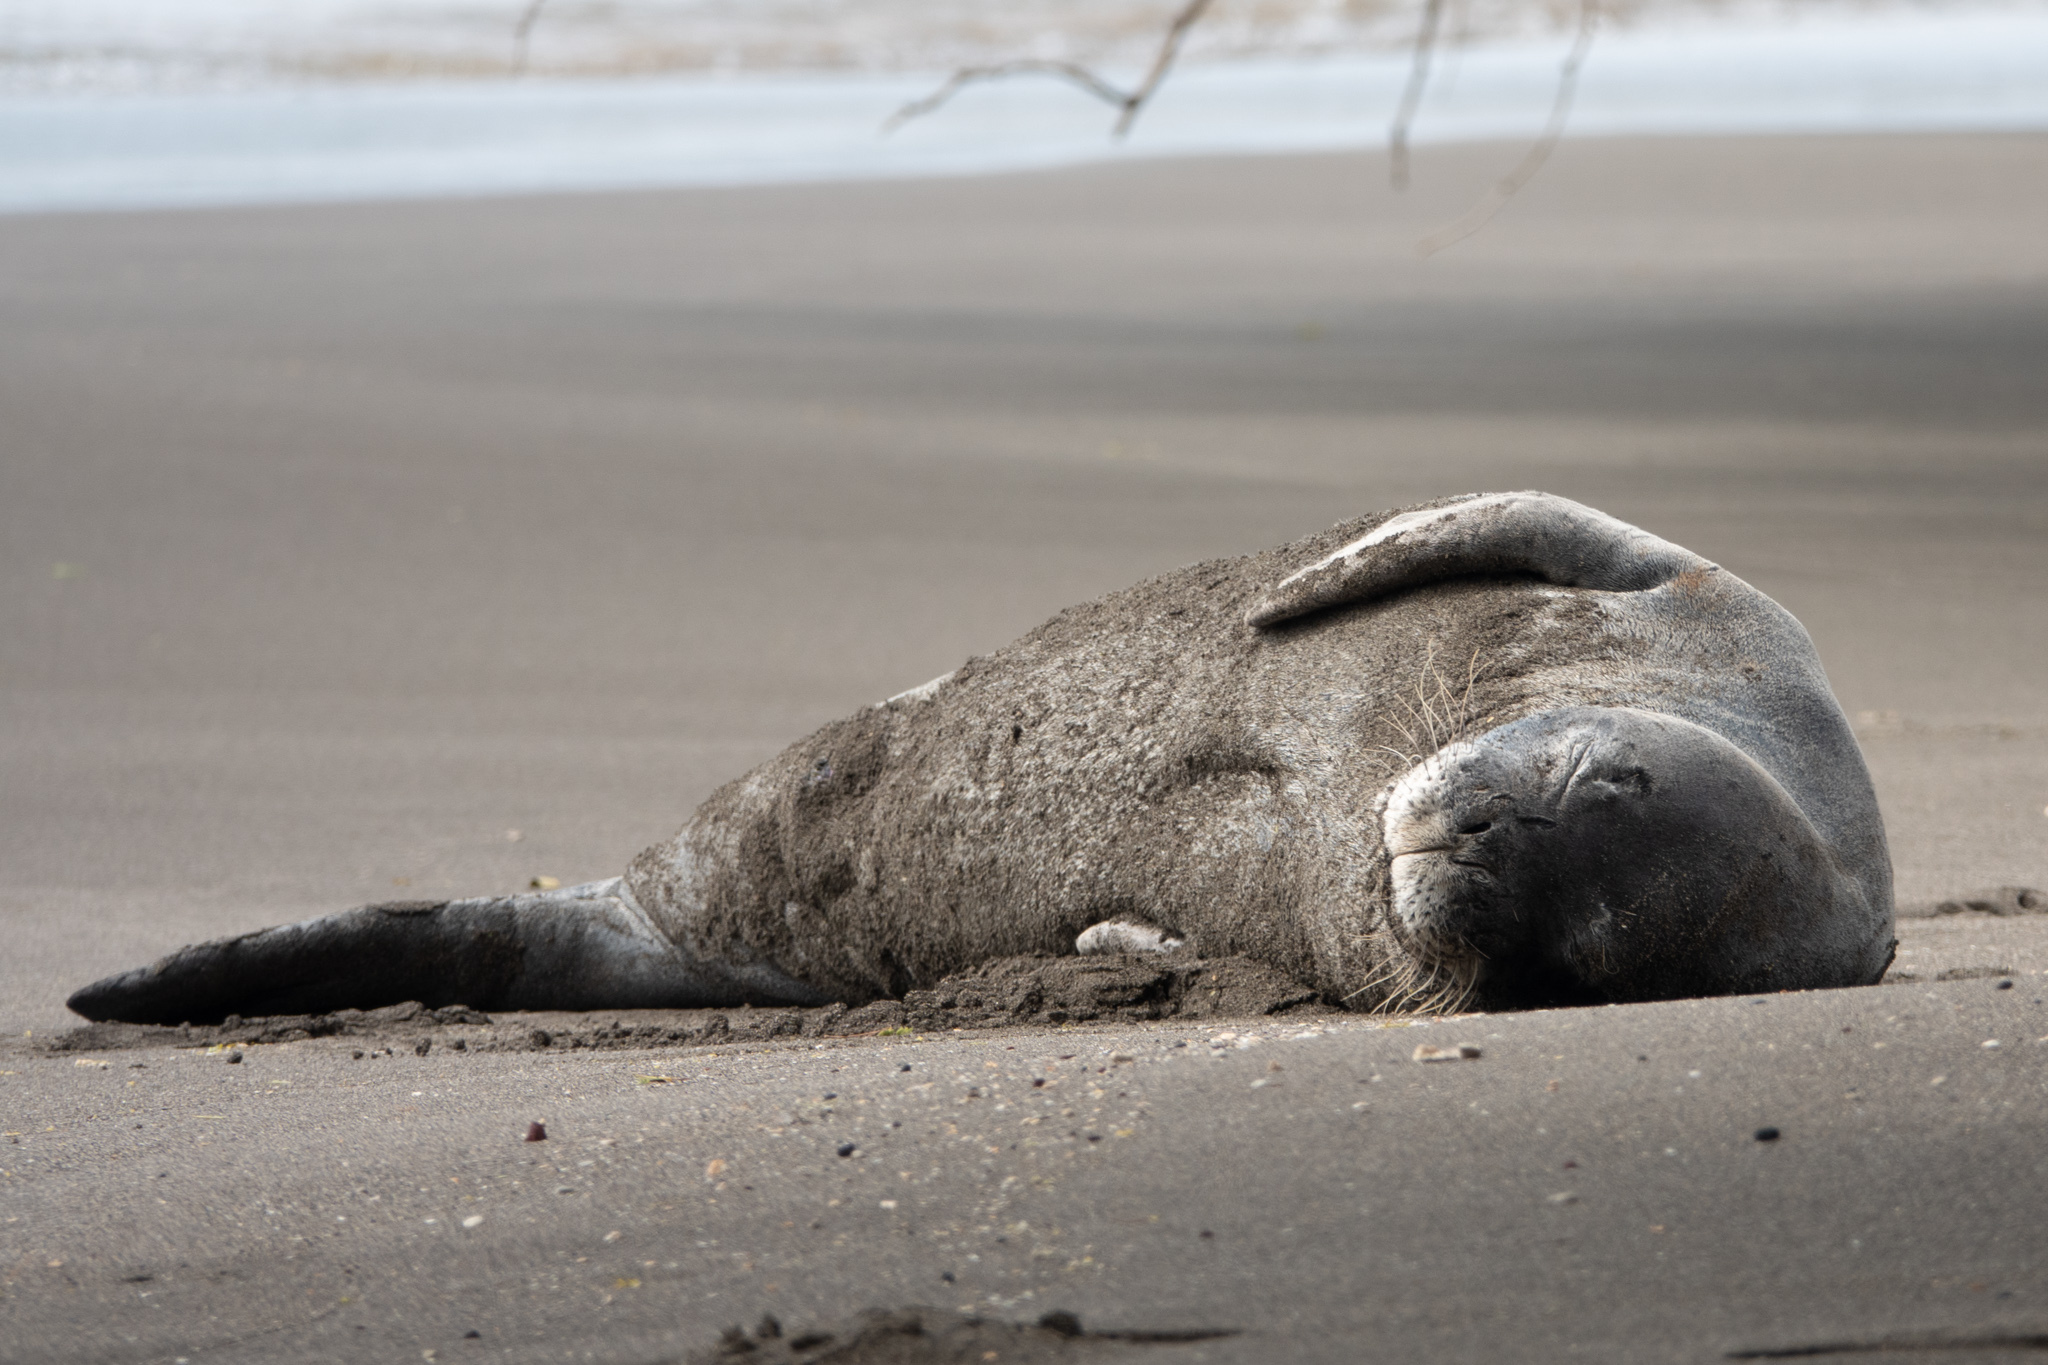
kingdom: Animalia
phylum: Chordata
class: Mammalia
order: Carnivora
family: Phocidae
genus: Neomonachus
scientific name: Neomonachus schauinslandi
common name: Hawaiian monk seal
